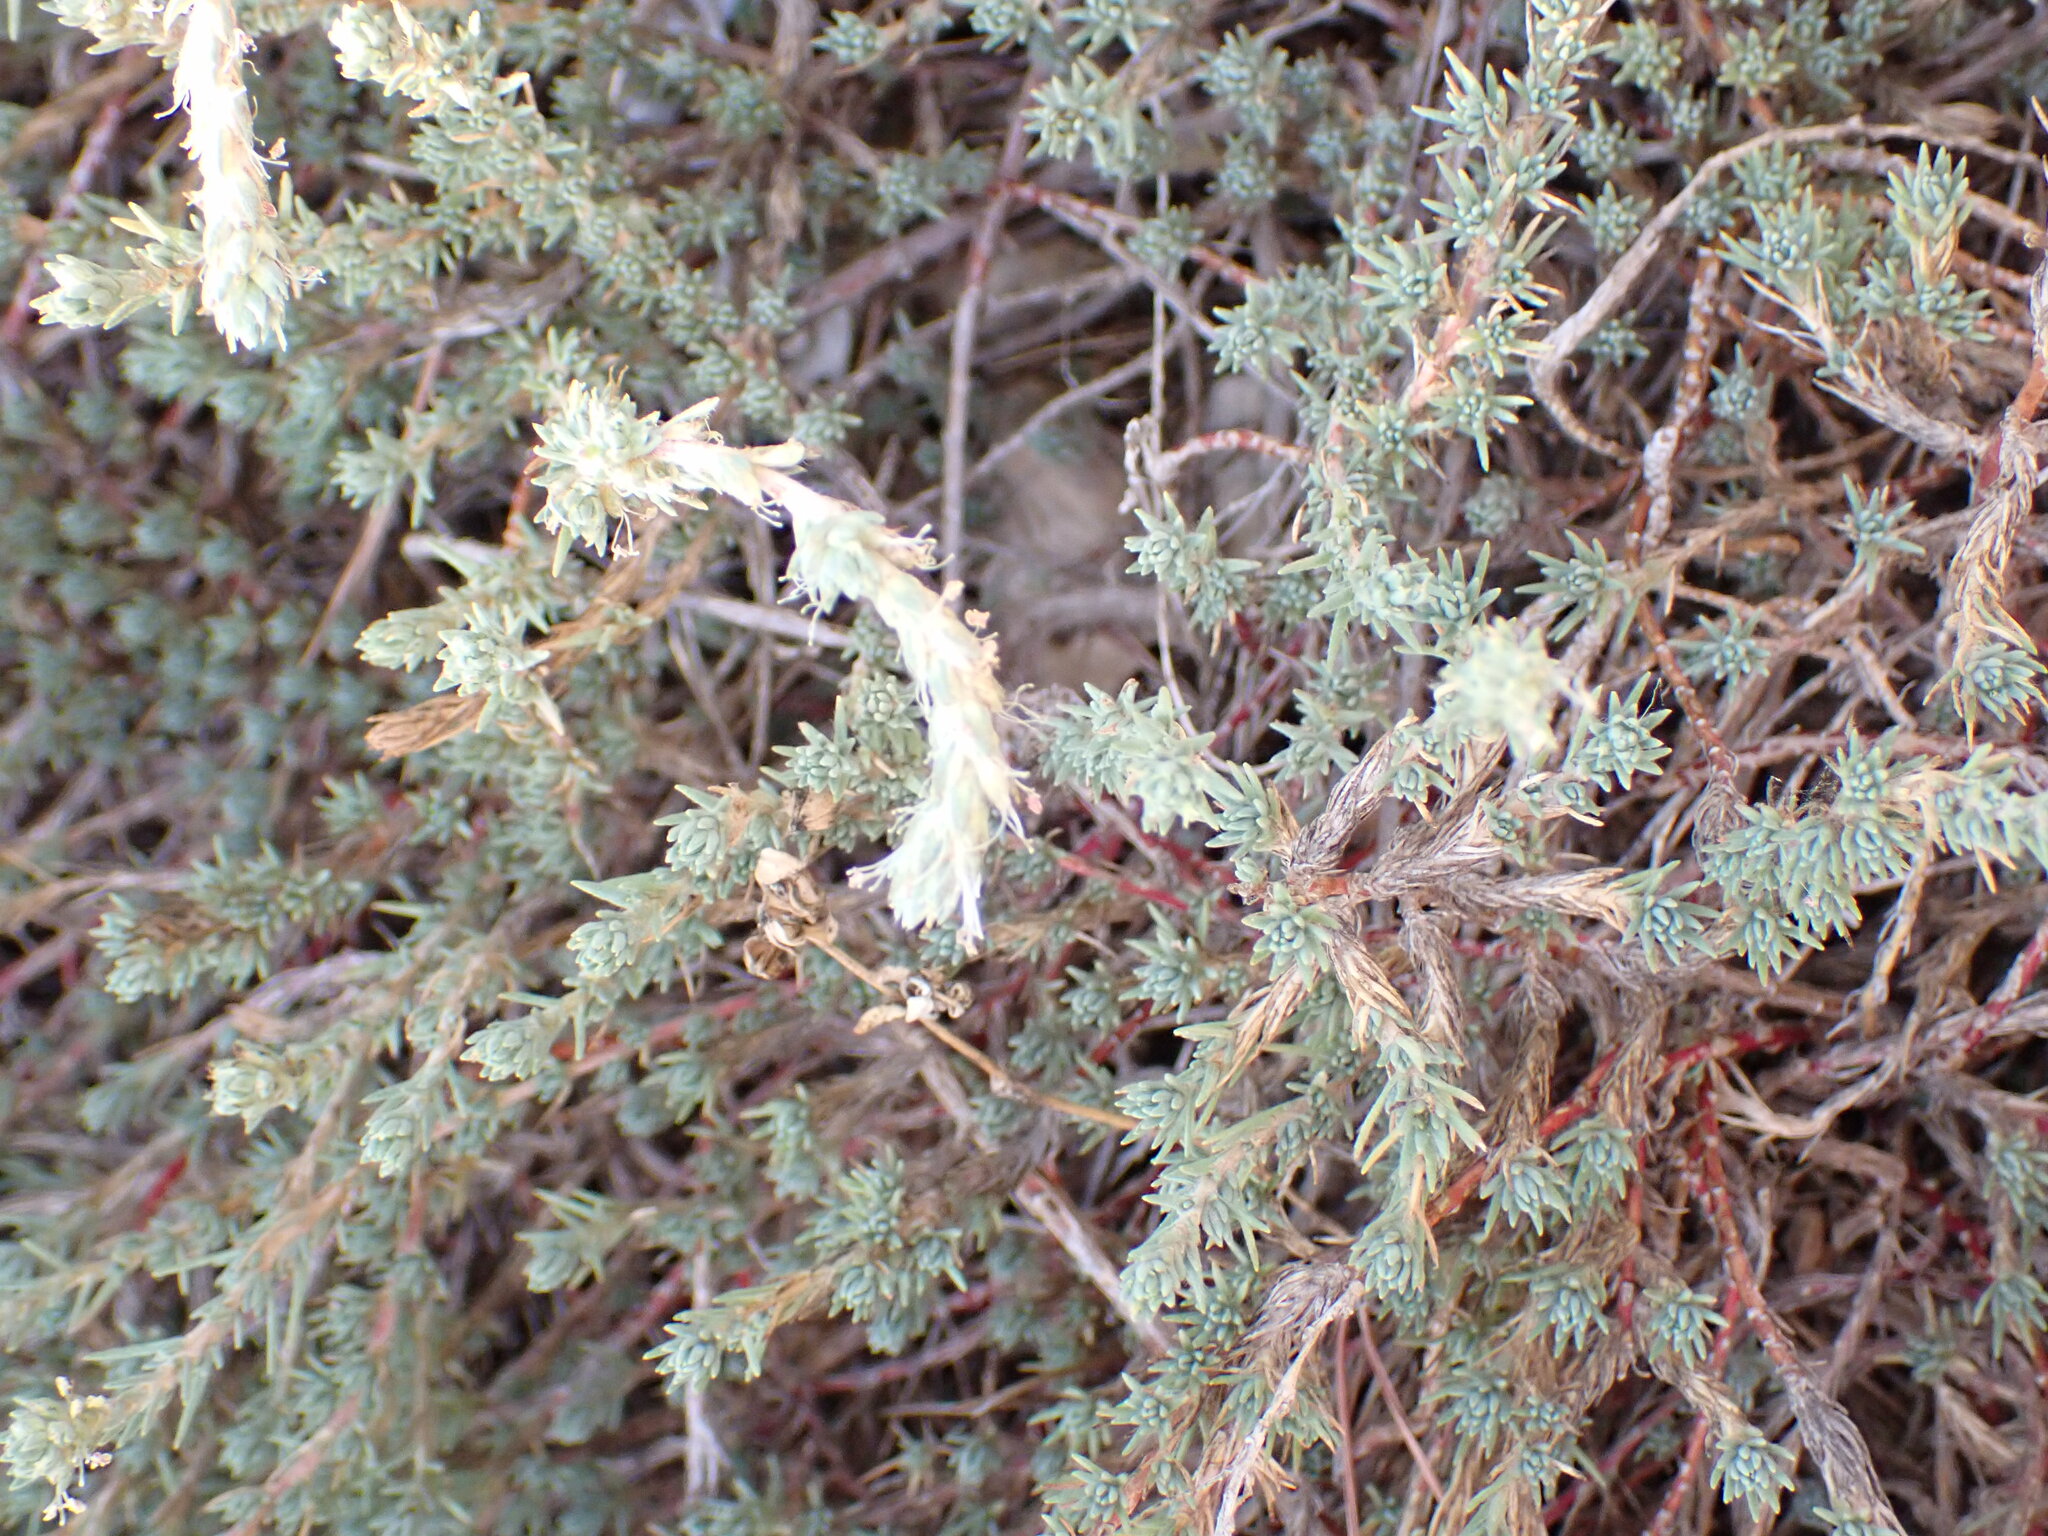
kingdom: Plantae
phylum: Tracheophyta
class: Magnoliopsida
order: Caryophyllales
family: Amaranthaceae
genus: Camphorosma
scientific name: Camphorosma monspeliaca
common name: Camphorfume
